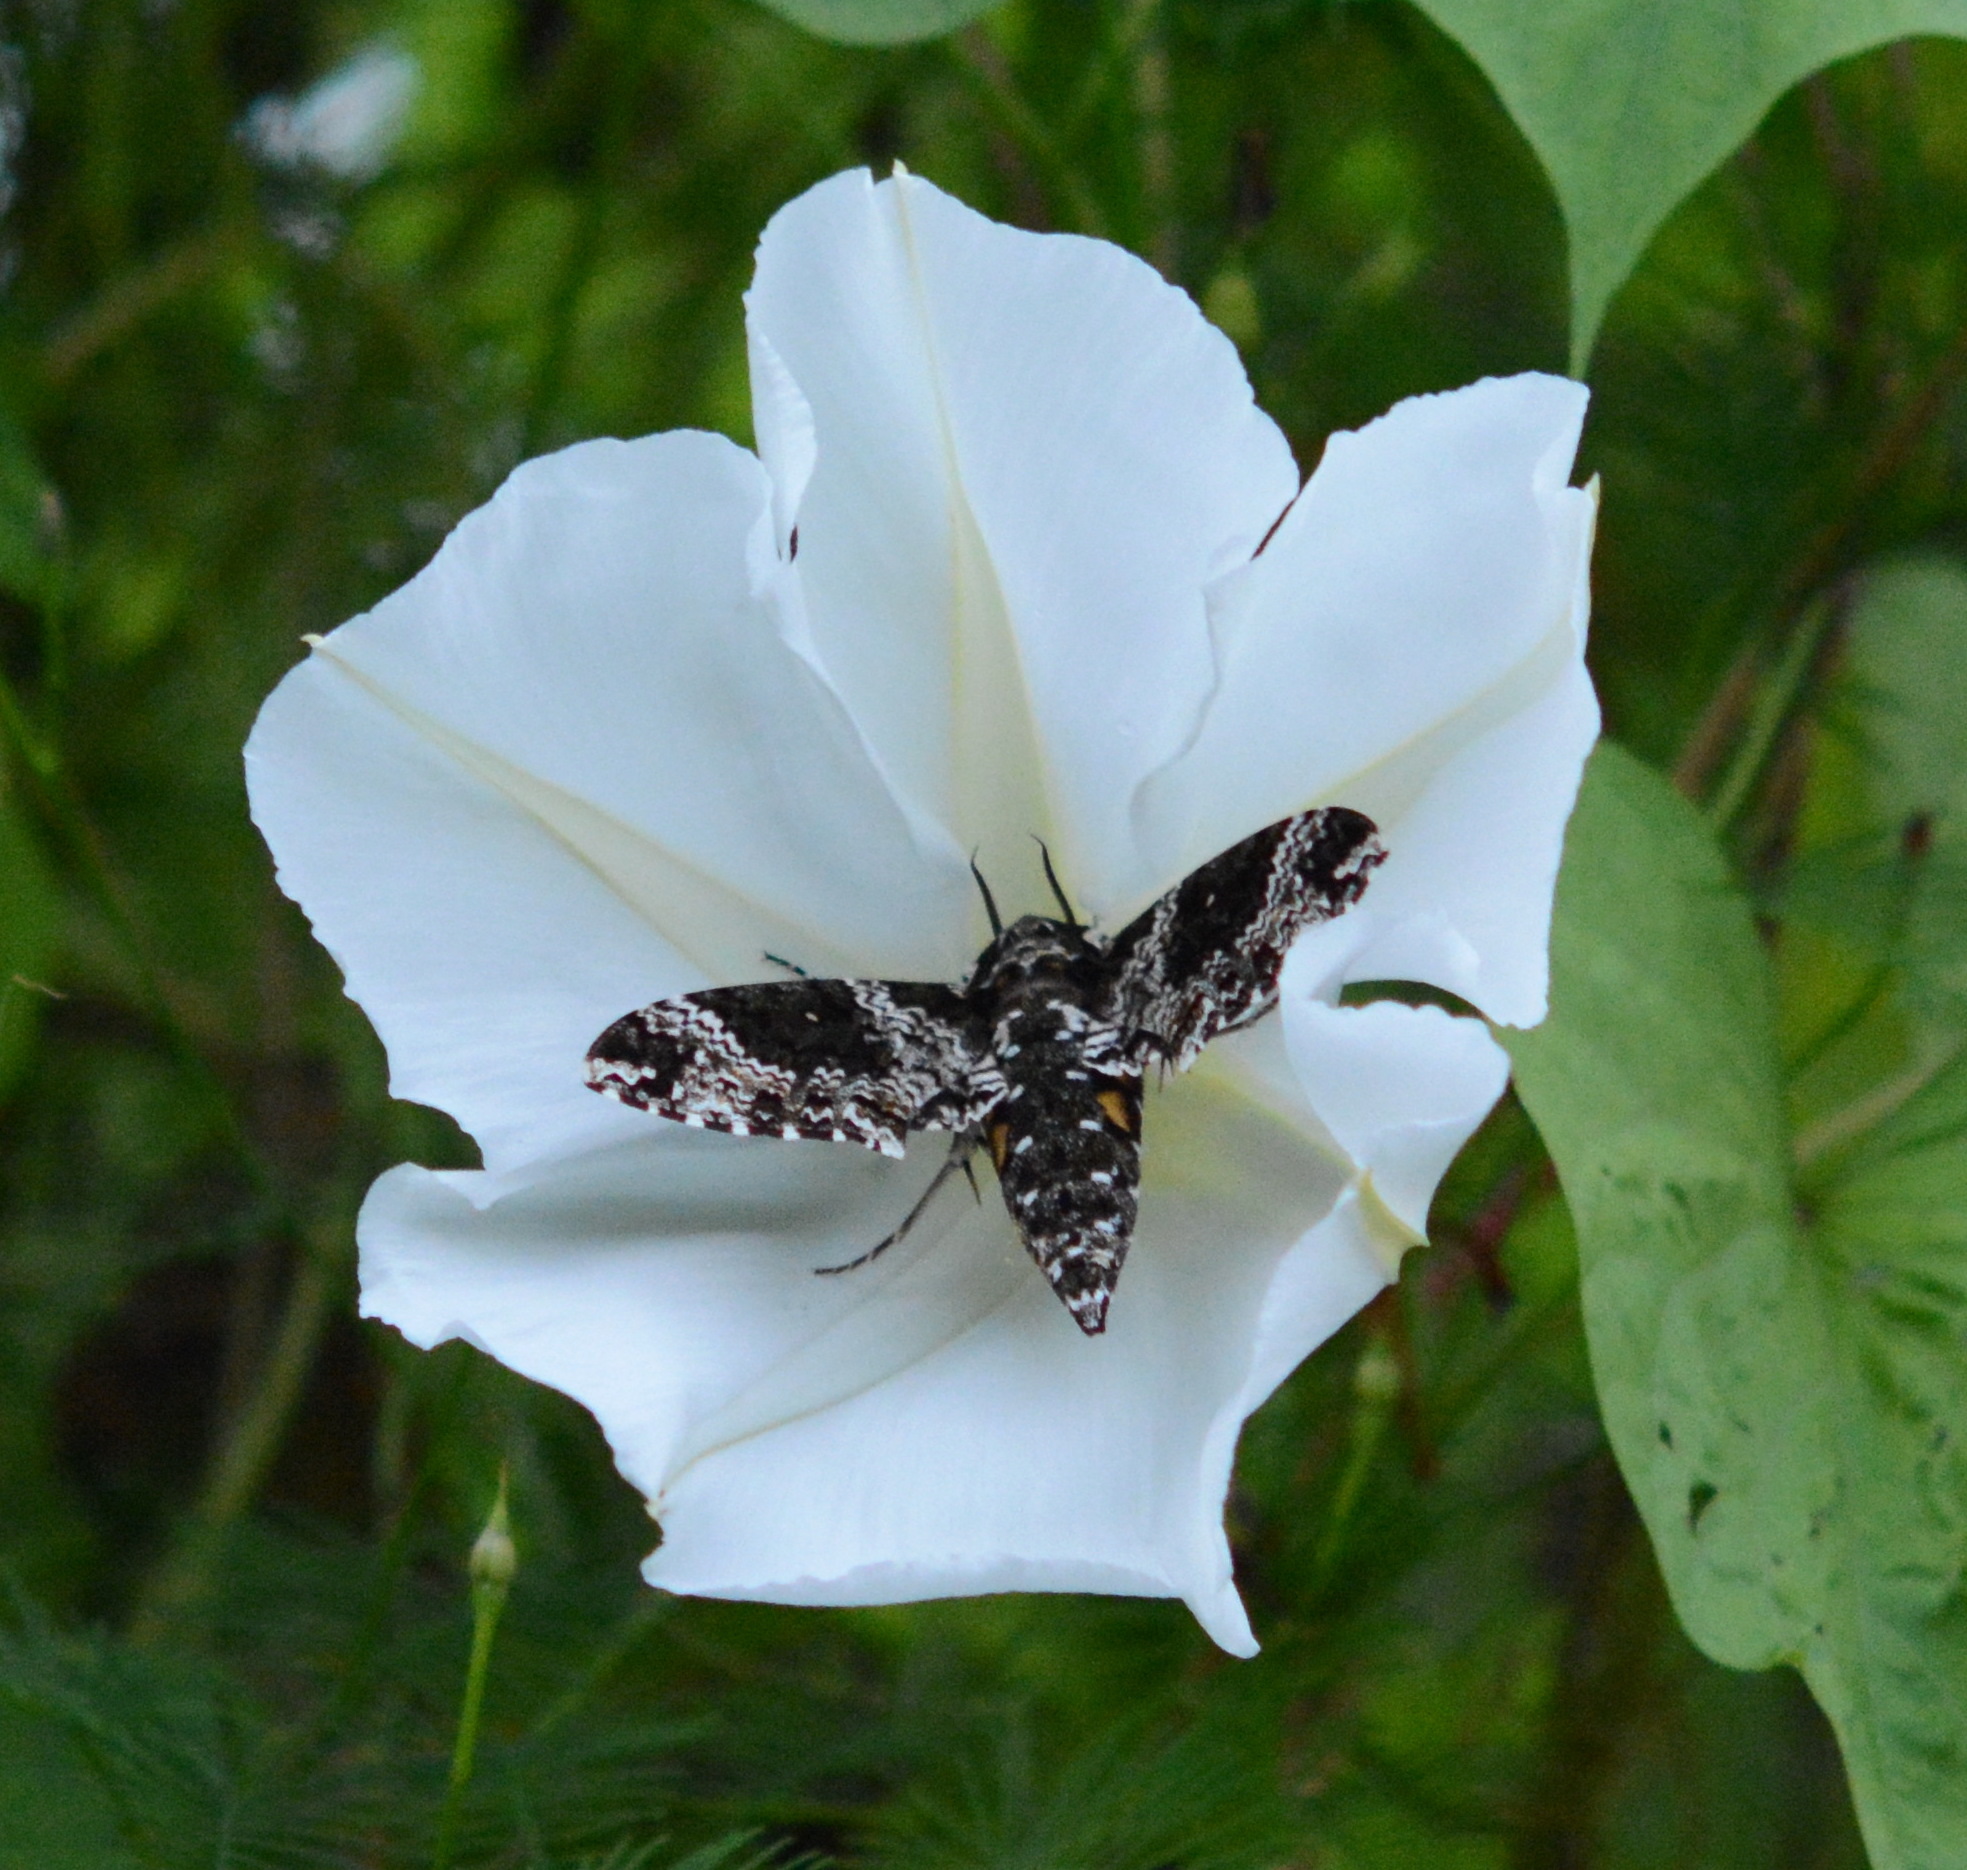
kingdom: Animalia
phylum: Arthropoda
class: Insecta
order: Lepidoptera
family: Sphingidae
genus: Manduca
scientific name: Manduca rustica
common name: Rustic sphinx
